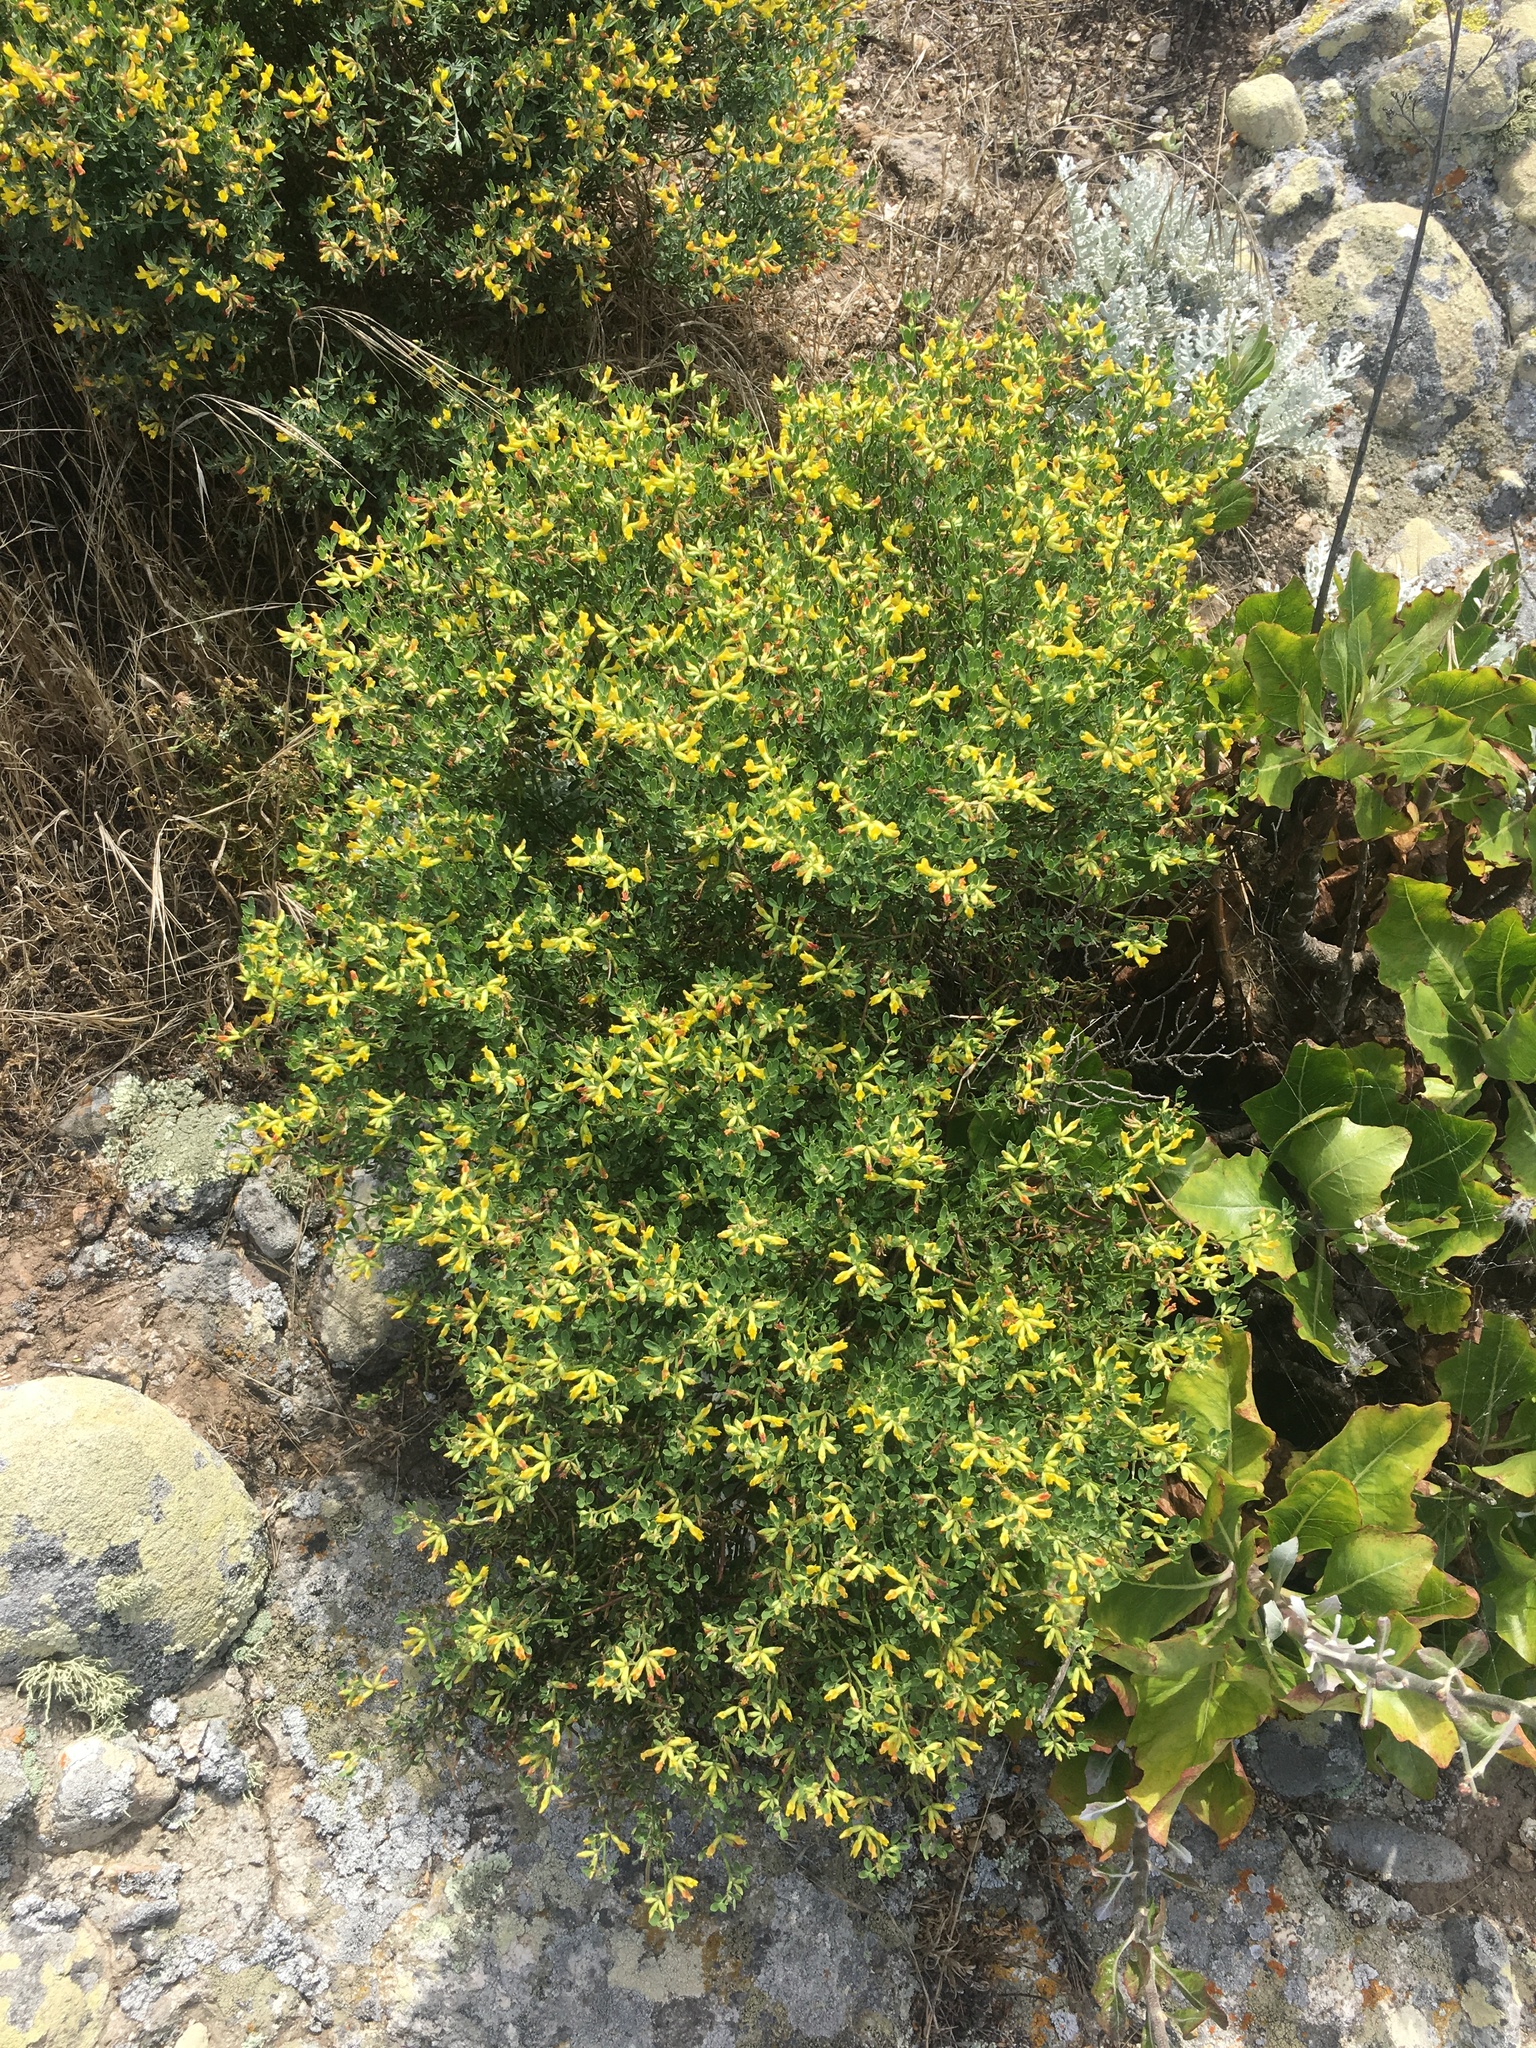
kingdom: Plantae
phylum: Tracheophyta
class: Magnoliopsida
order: Fabales
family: Fabaceae
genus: Acmispon
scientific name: Acmispon dendroideus
